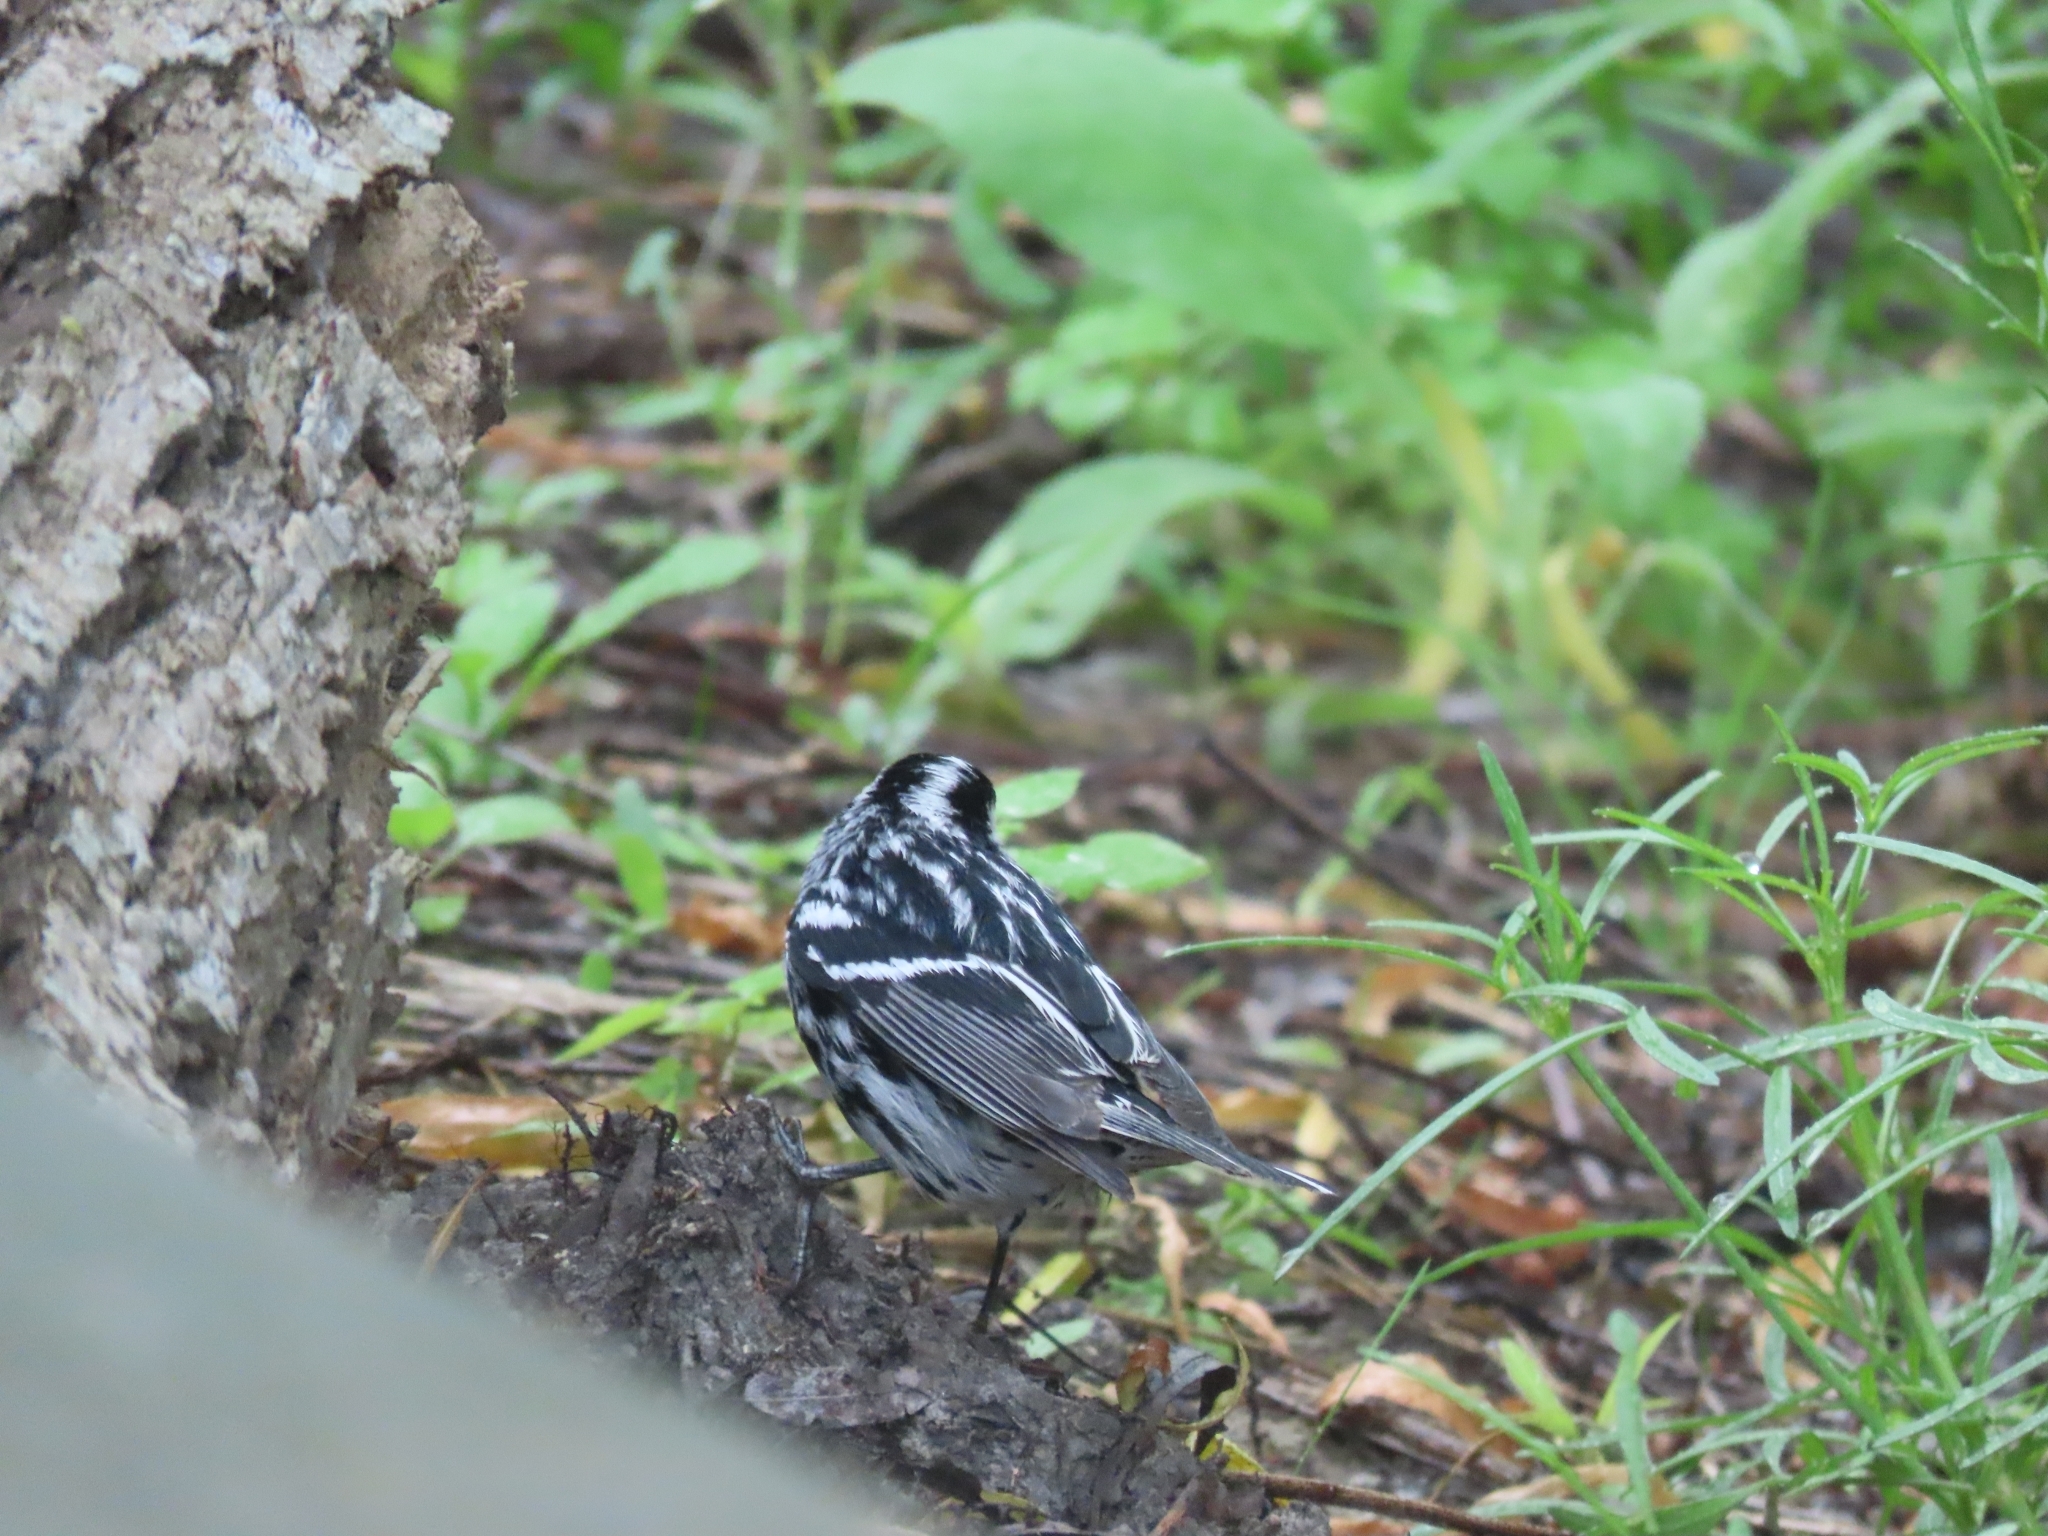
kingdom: Animalia
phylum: Chordata
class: Aves
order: Passeriformes
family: Parulidae
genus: Mniotilta
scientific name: Mniotilta varia
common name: Black-and-white warbler
